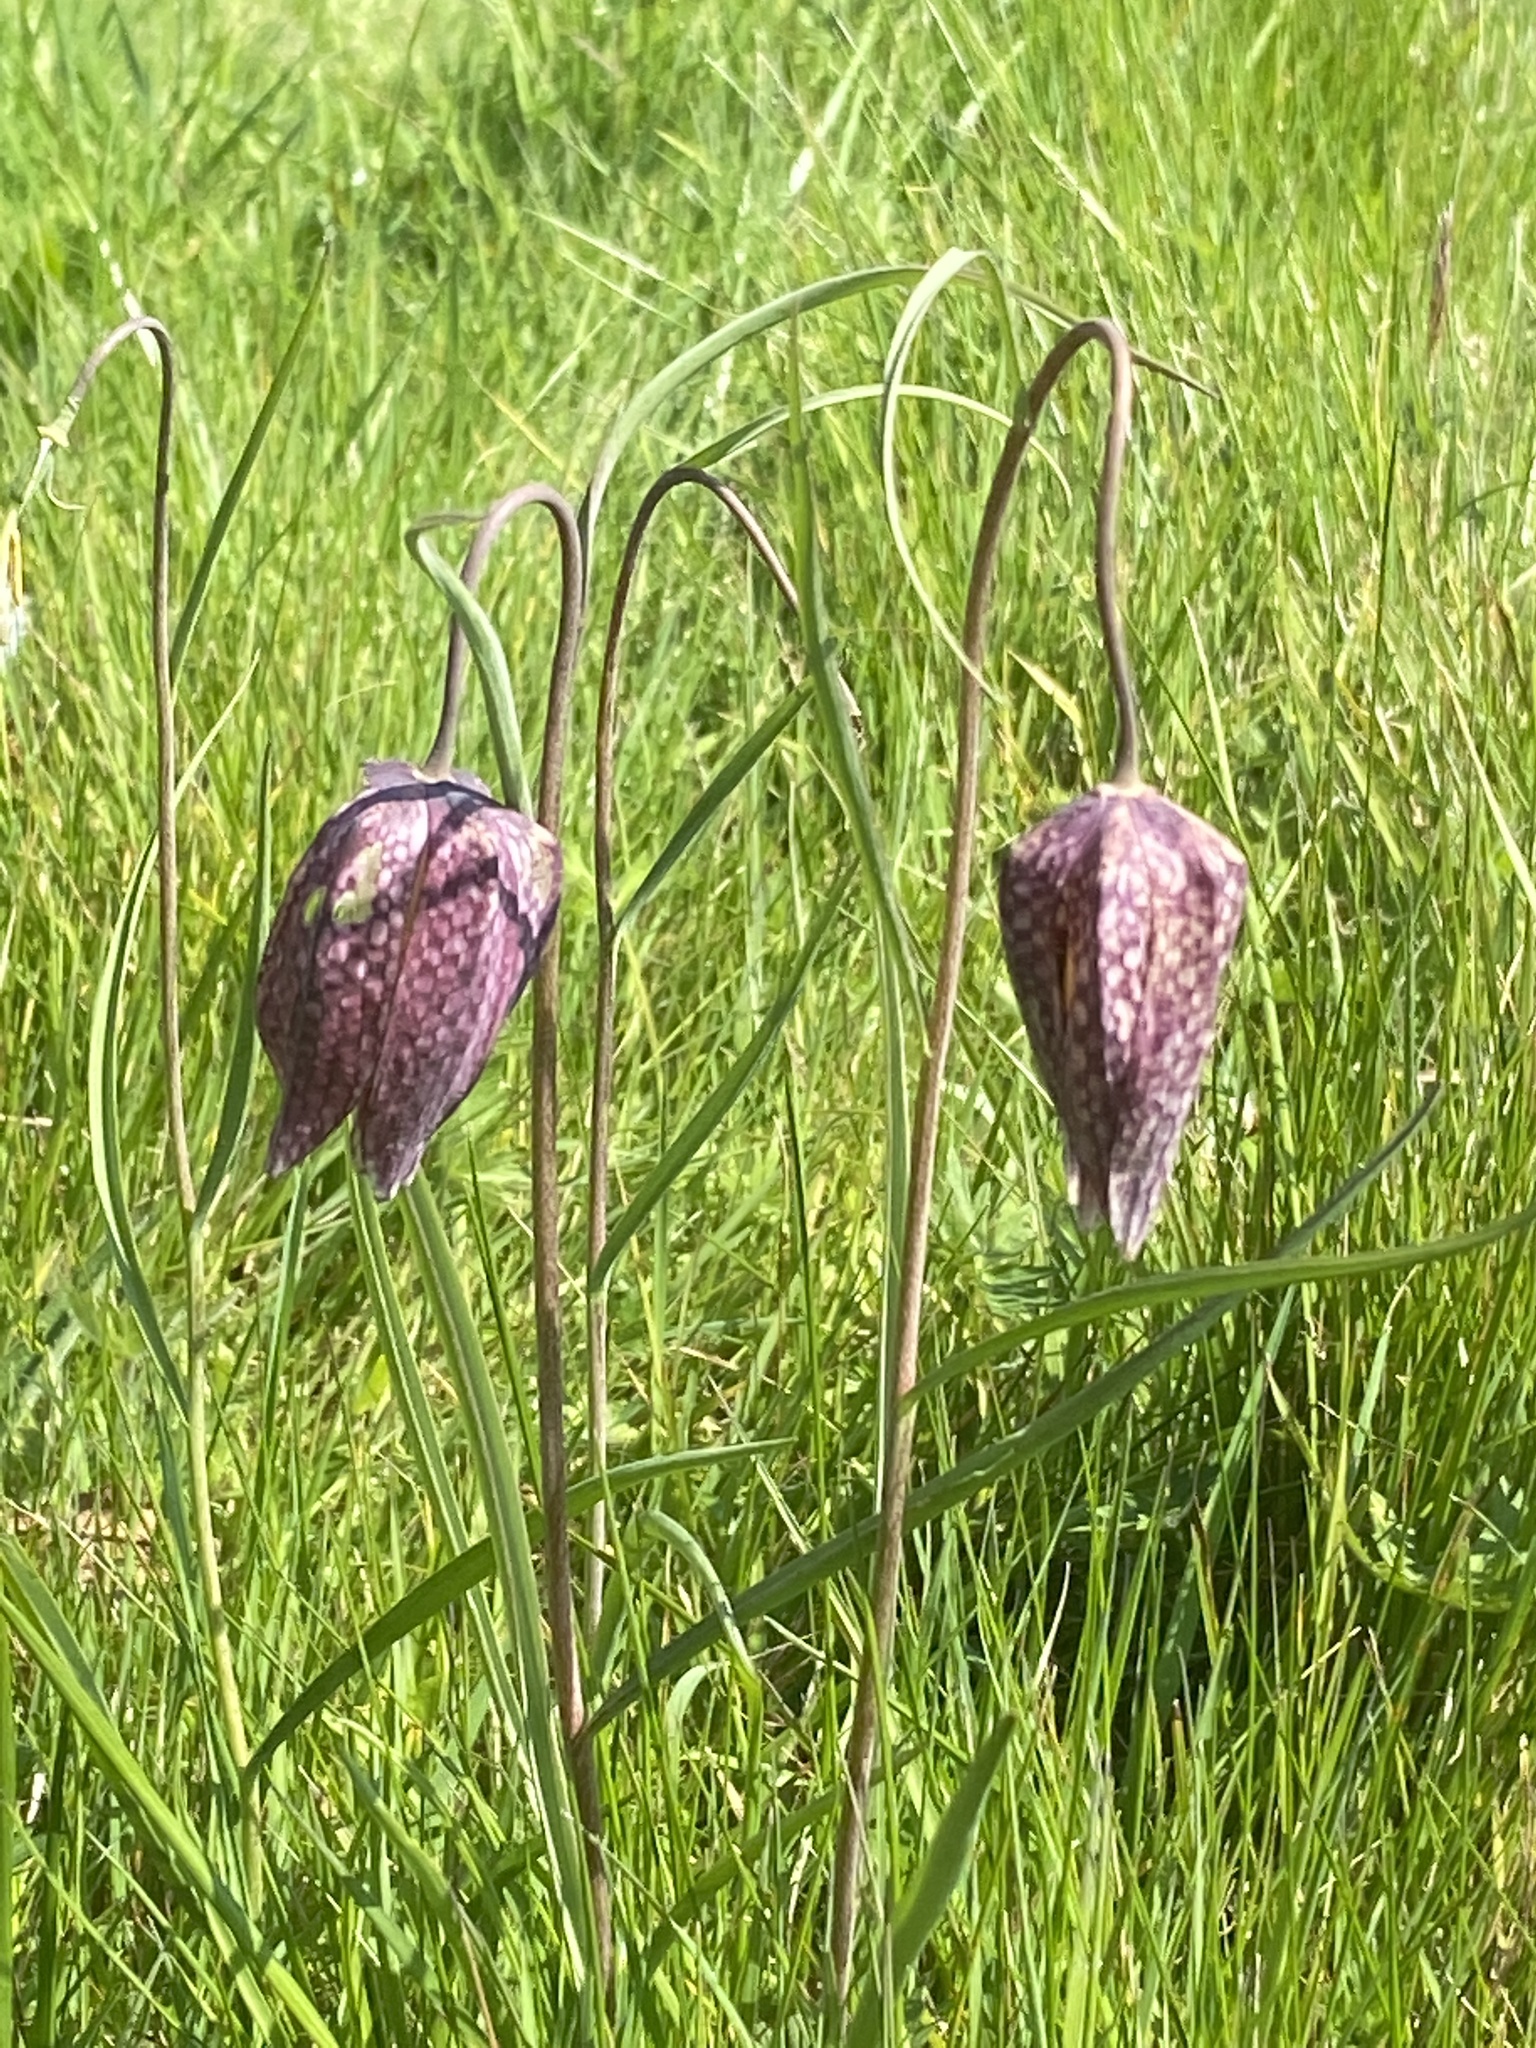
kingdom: Plantae
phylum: Tracheophyta
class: Liliopsida
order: Liliales
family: Liliaceae
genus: Fritillaria
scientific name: Fritillaria meleagris
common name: Fritillary
